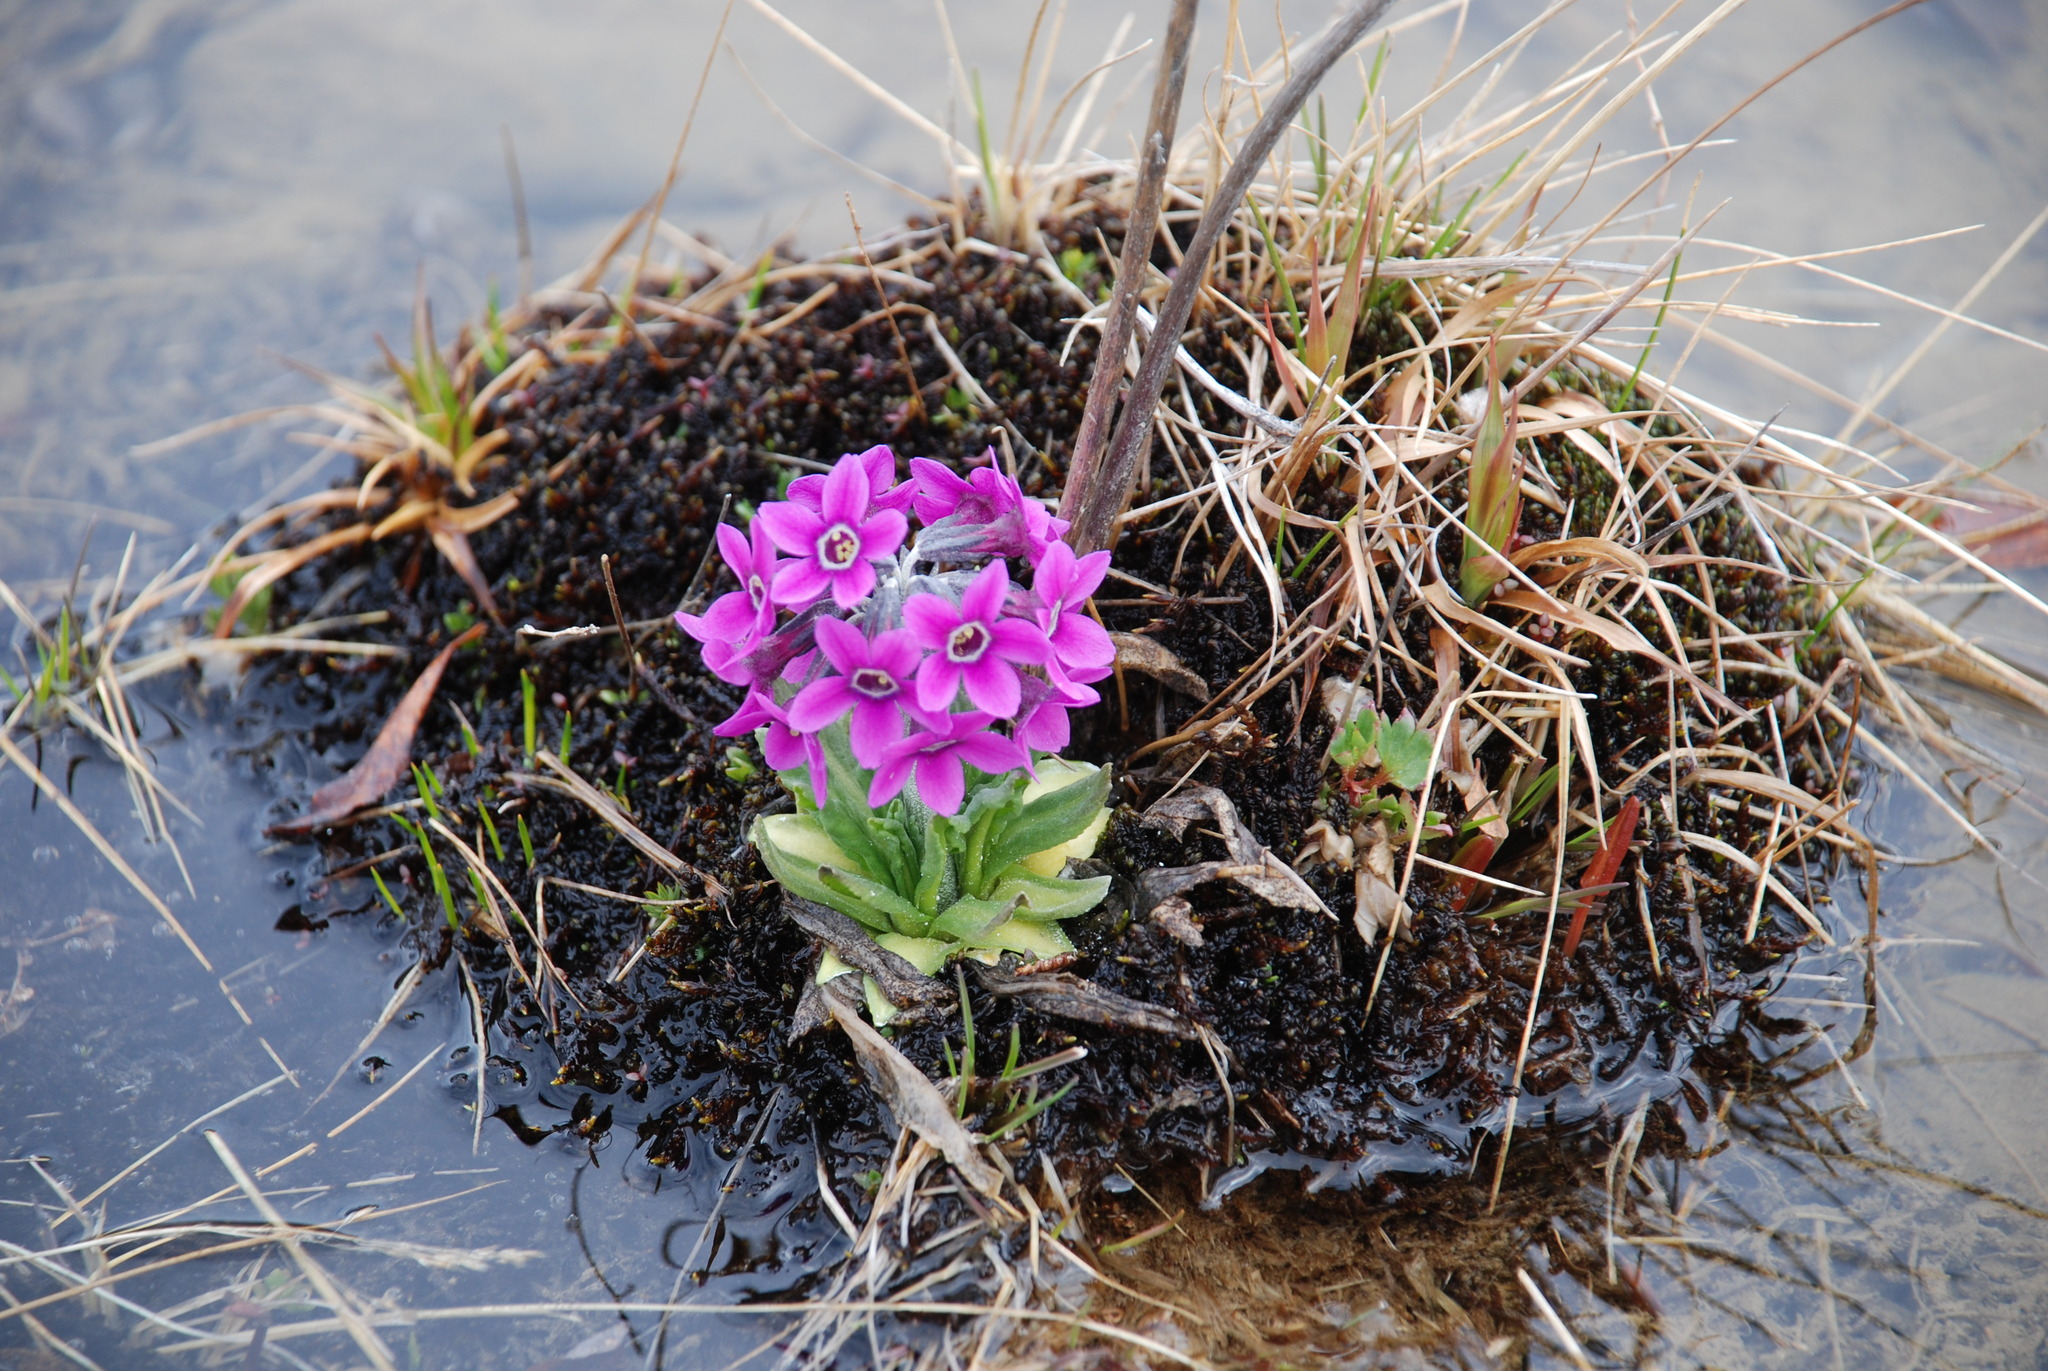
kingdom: Plantae
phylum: Tracheophyta
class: Magnoliopsida
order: Ericales
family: Primulaceae
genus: Primula
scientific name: Primula pumila
